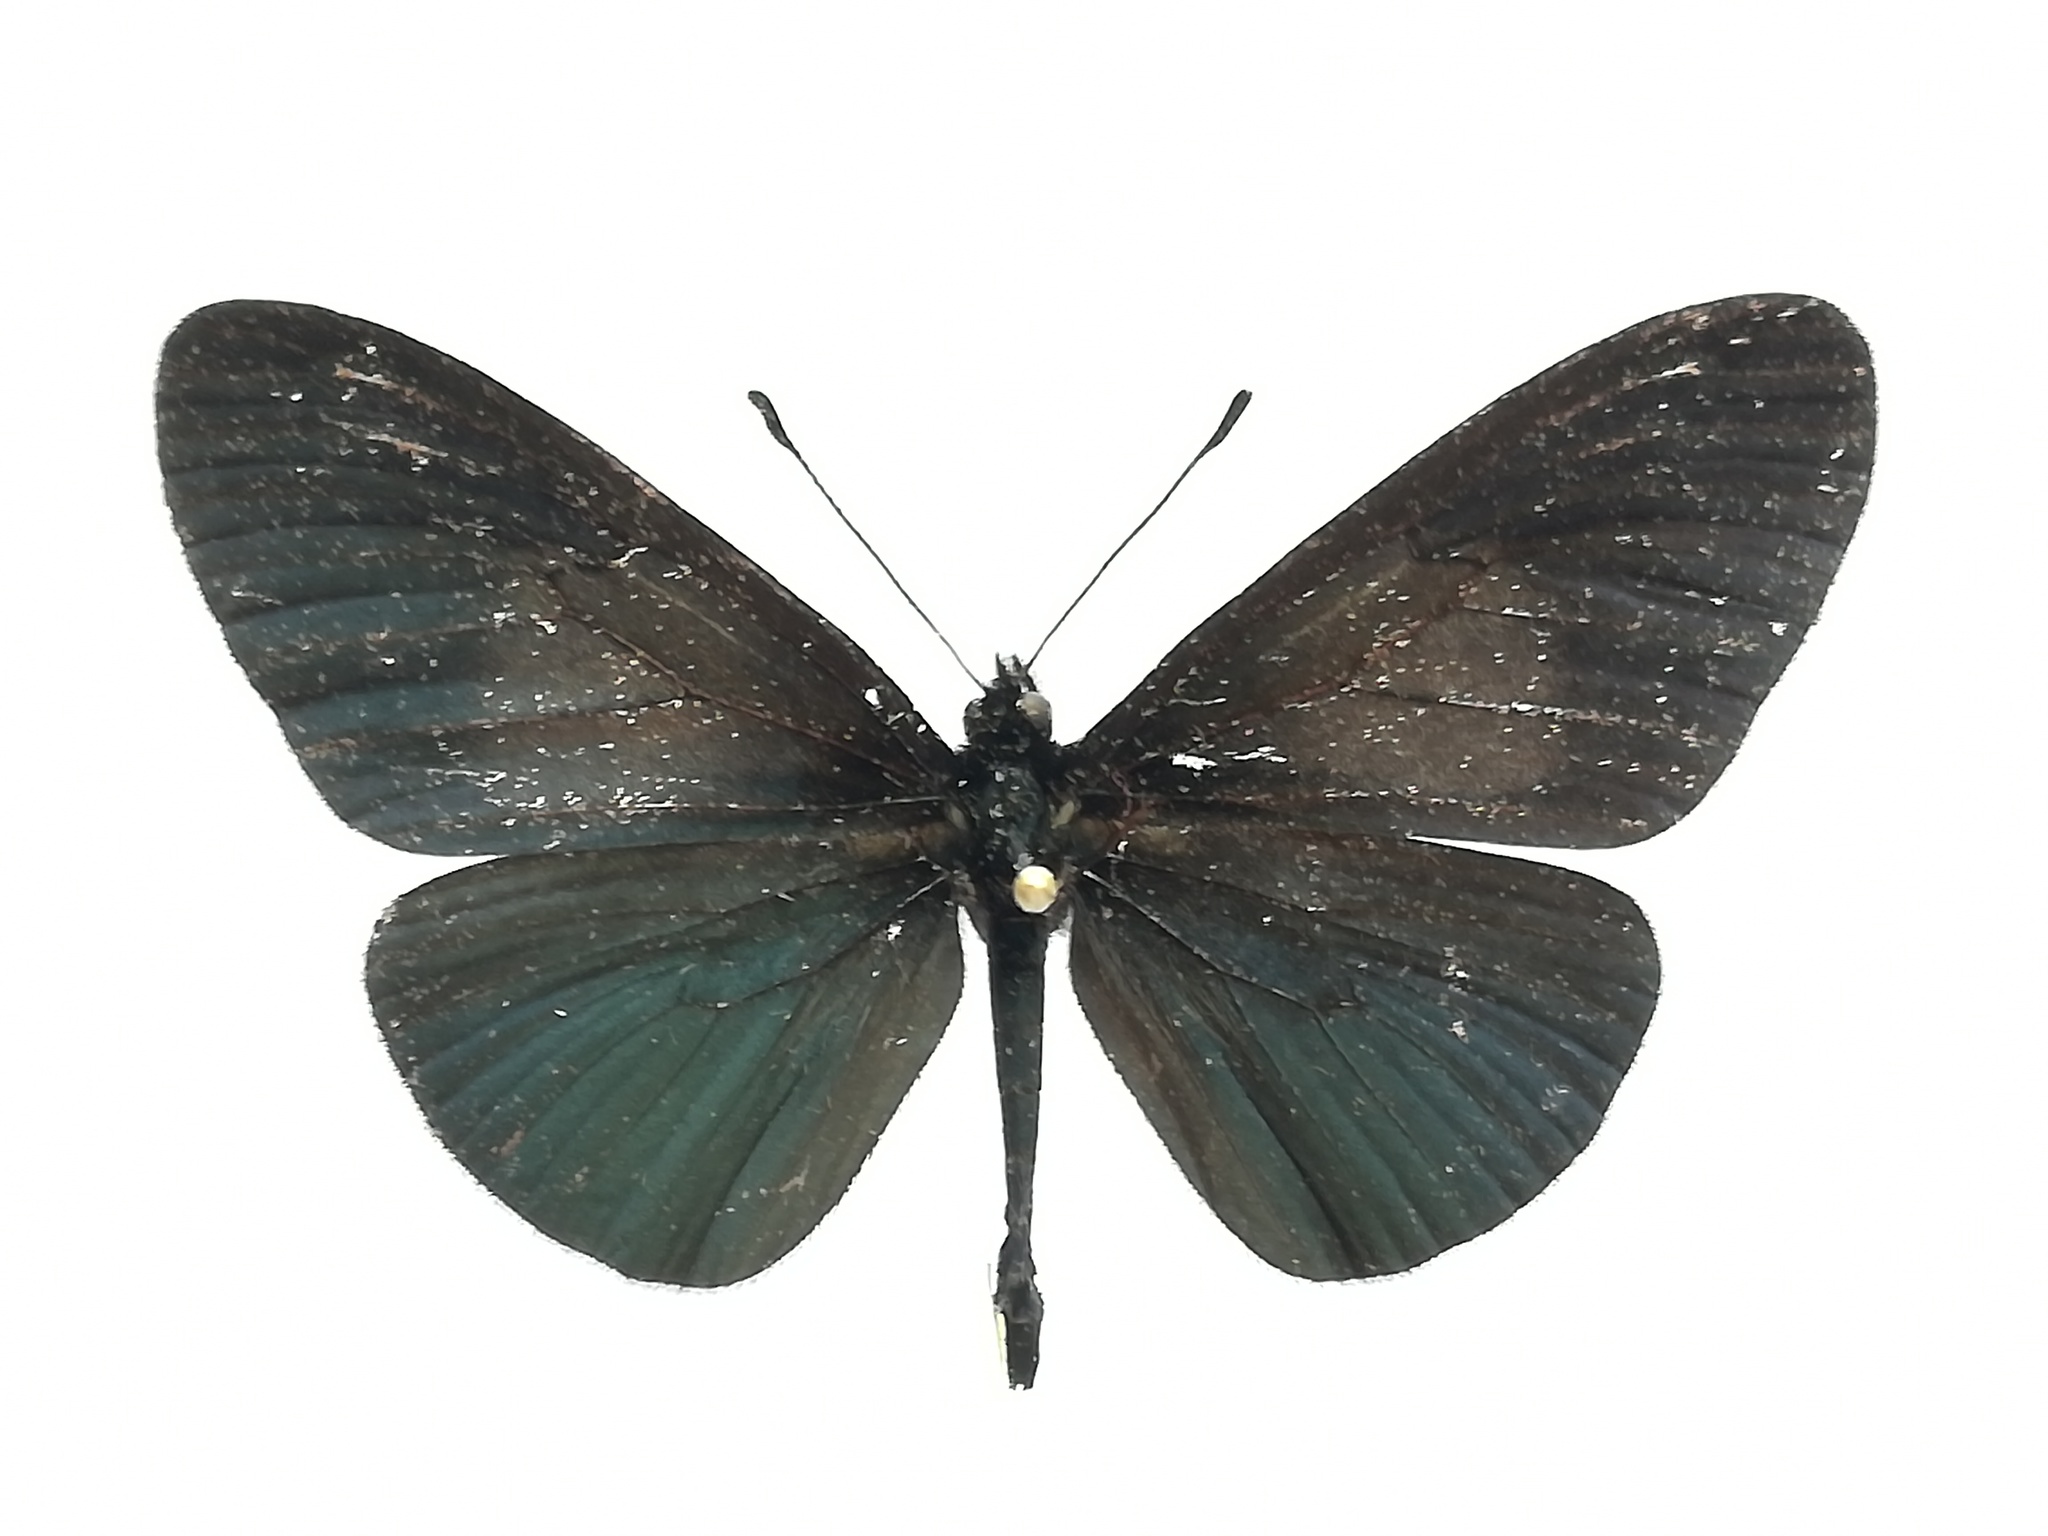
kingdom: Animalia
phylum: Arthropoda
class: Insecta
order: Lepidoptera
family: Nymphalidae
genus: Acraea
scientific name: Acraea Altinote ozomene
